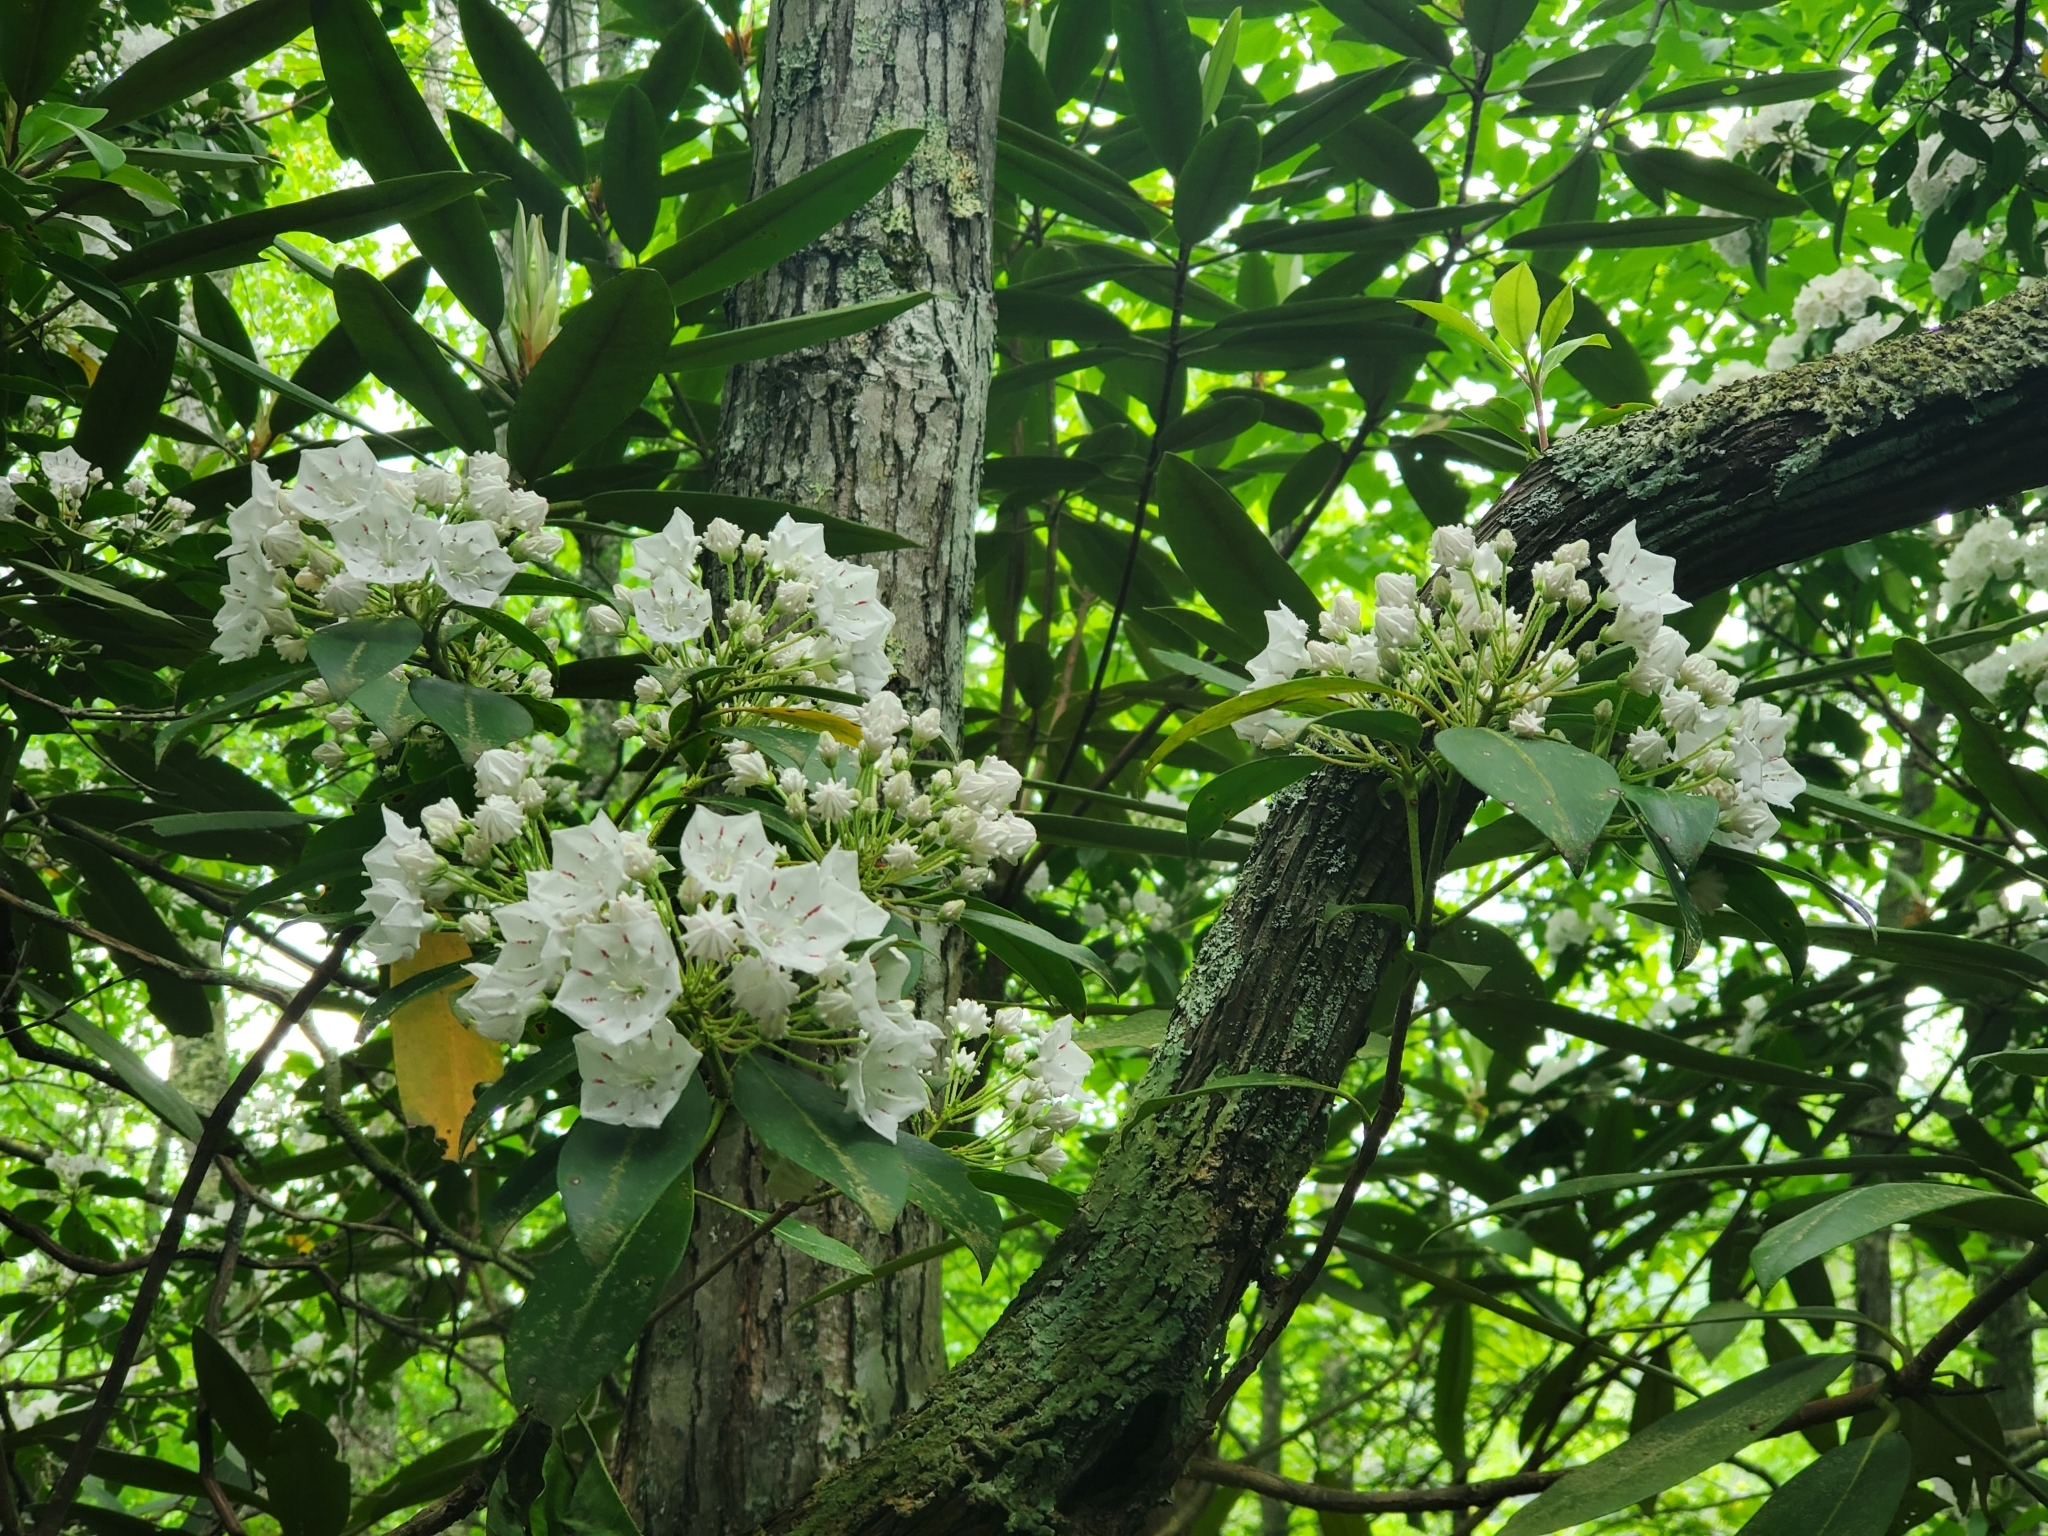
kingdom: Plantae
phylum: Tracheophyta
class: Magnoliopsida
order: Ericales
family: Ericaceae
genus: Kalmia
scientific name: Kalmia latifolia
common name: Mountain-laurel
